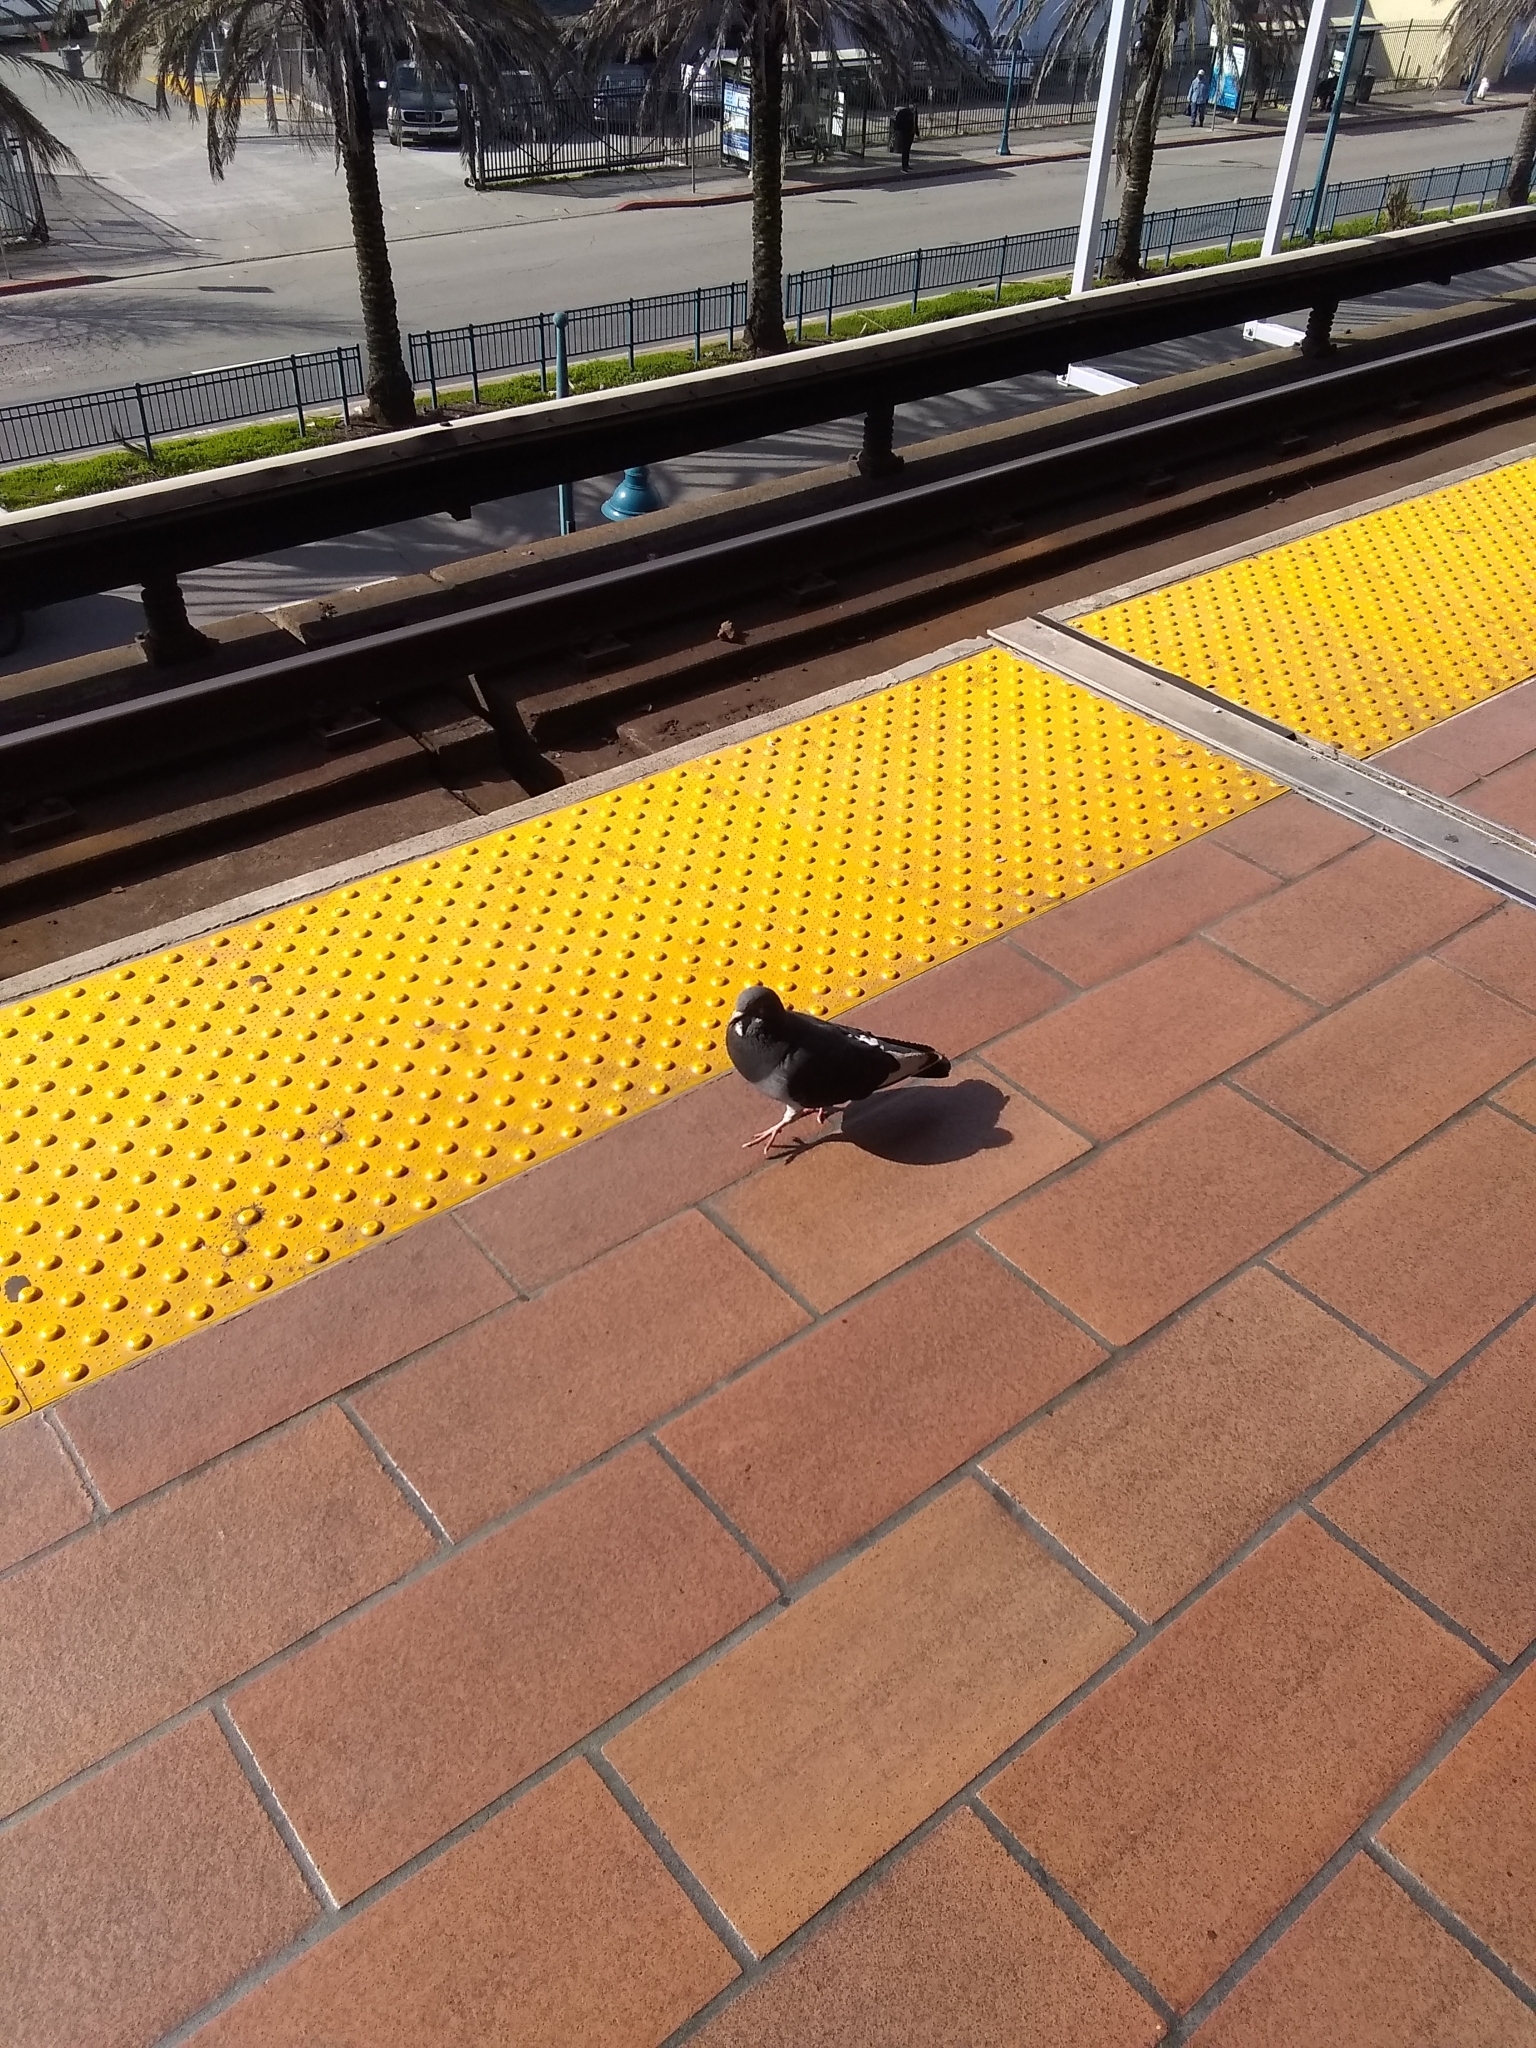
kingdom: Animalia
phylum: Chordata
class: Aves
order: Columbiformes
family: Columbidae
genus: Columba
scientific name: Columba livia
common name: Rock pigeon
